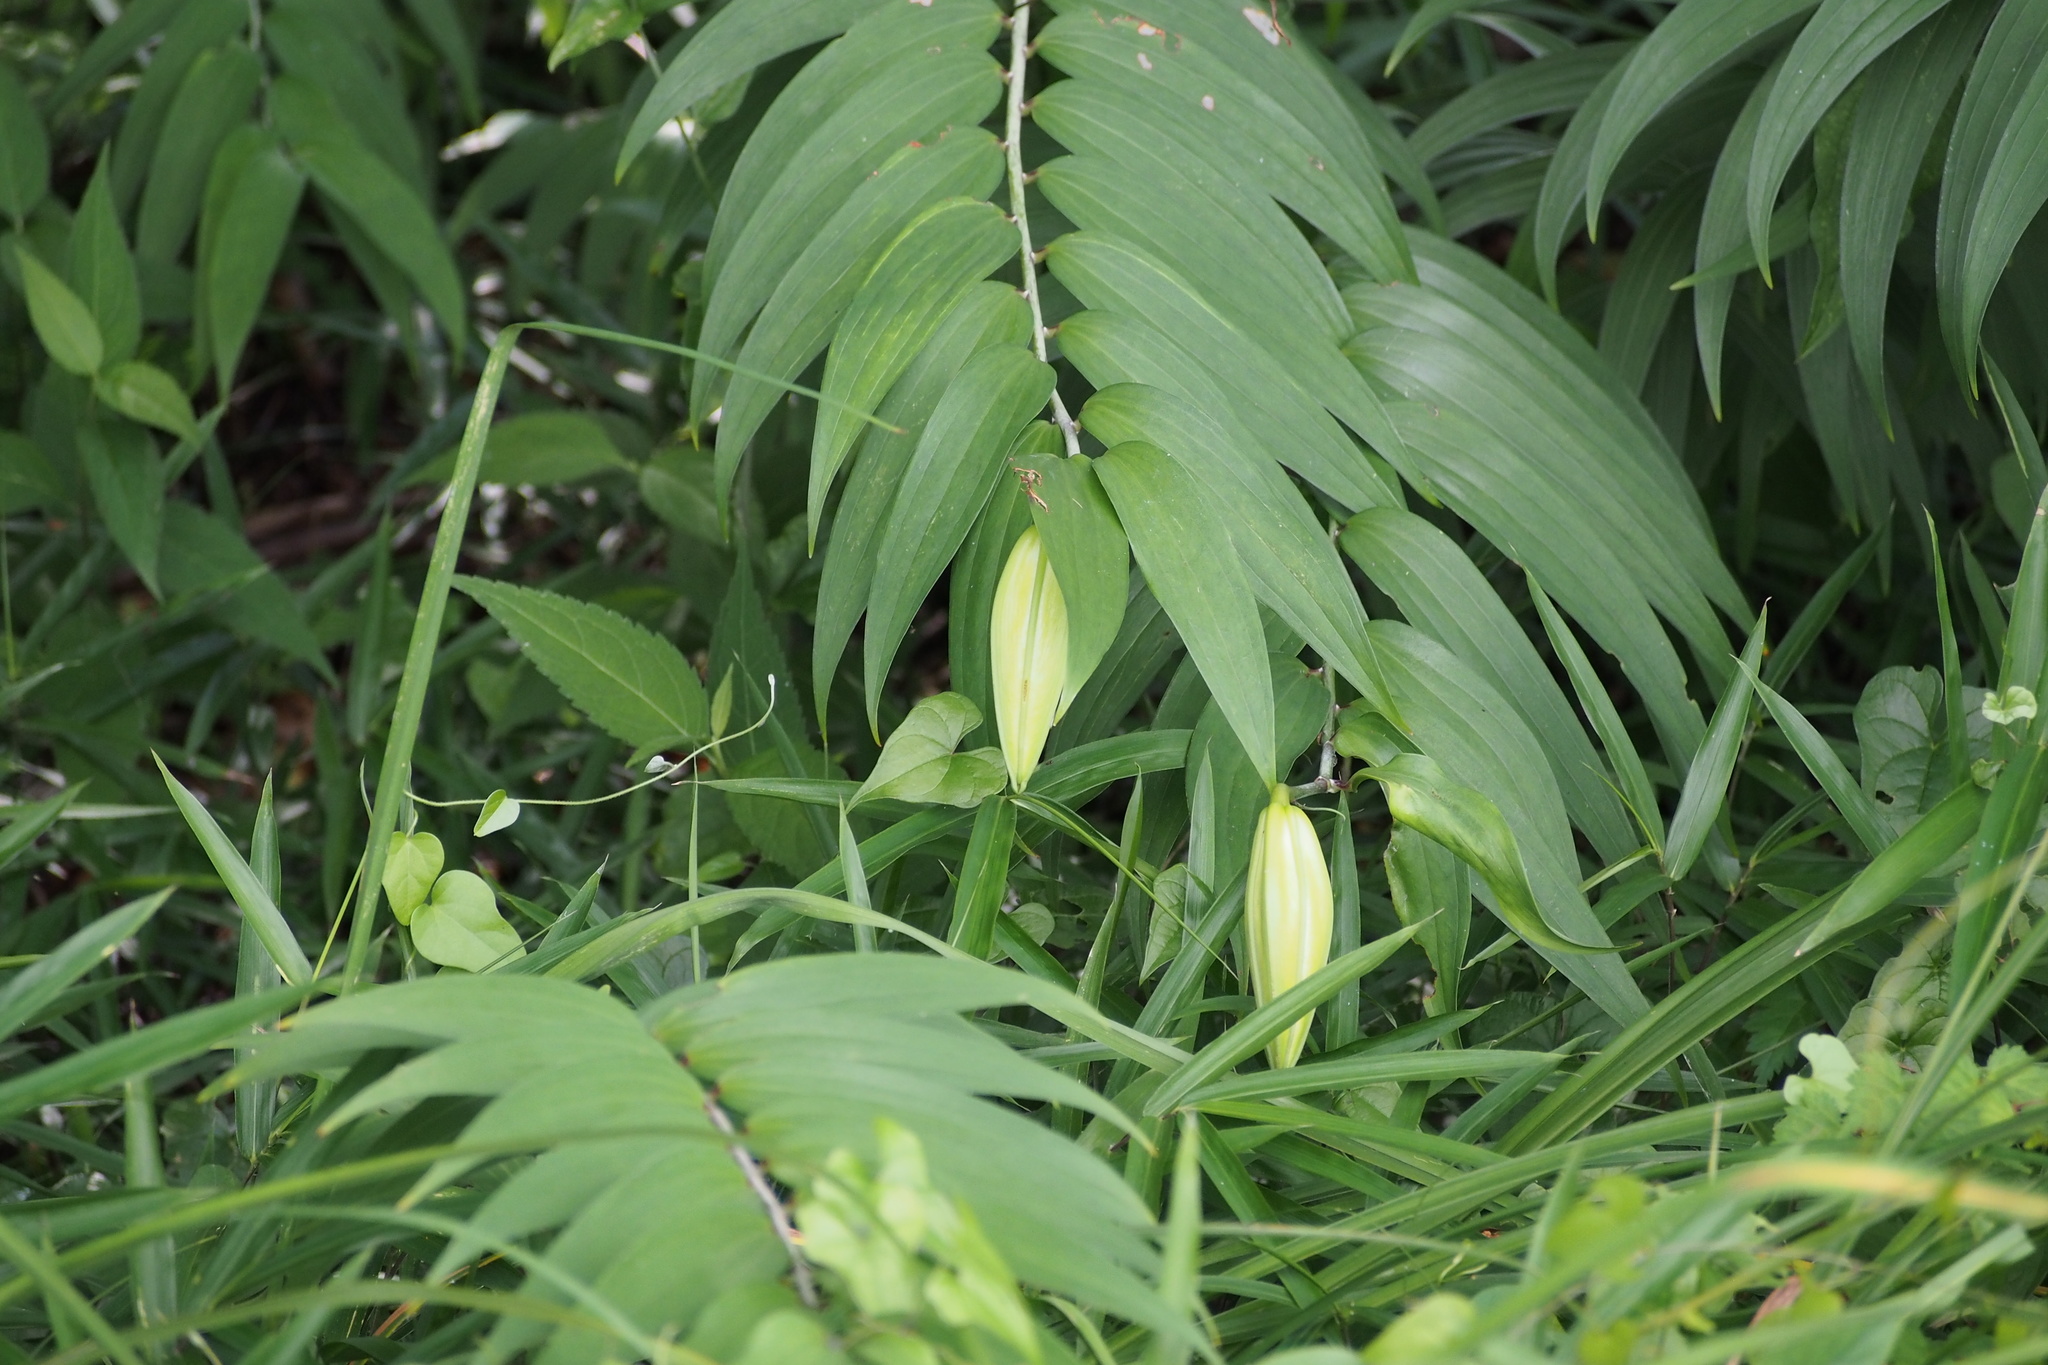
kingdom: Plantae
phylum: Tracheophyta
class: Liliopsida
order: Liliales
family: Liliaceae
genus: Lilium
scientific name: Lilium auratum
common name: Golden-ray lily
